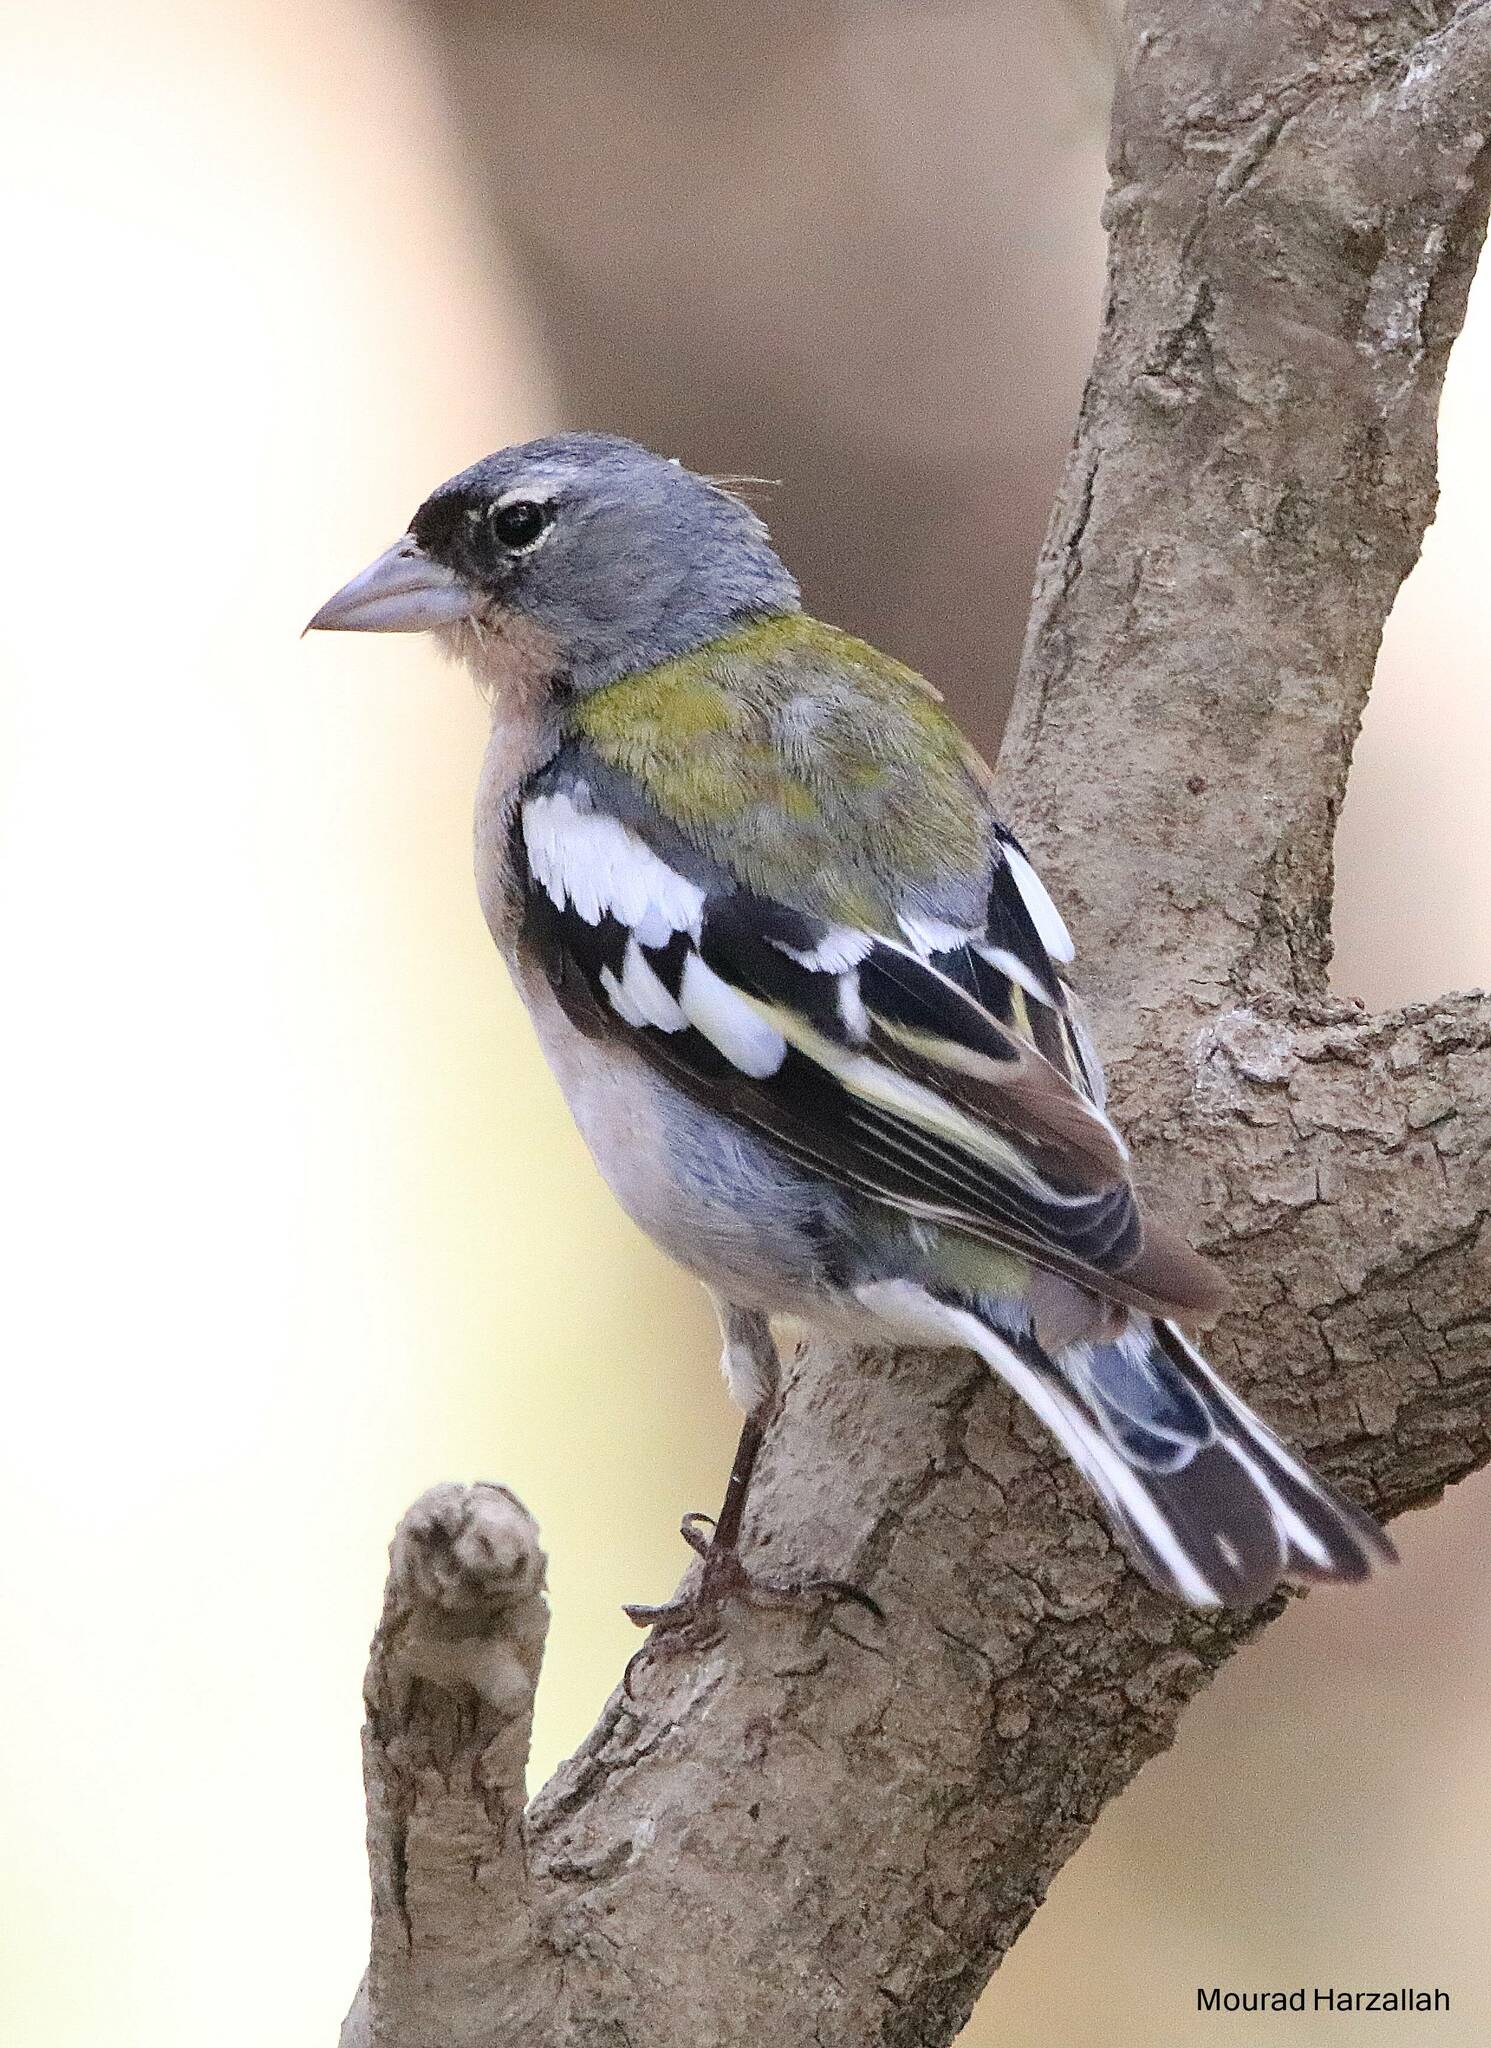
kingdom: Animalia
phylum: Chordata
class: Aves
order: Passeriformes
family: Fringillidae
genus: Fringilla
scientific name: Fringilla spodiogenys
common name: African chaffinch
